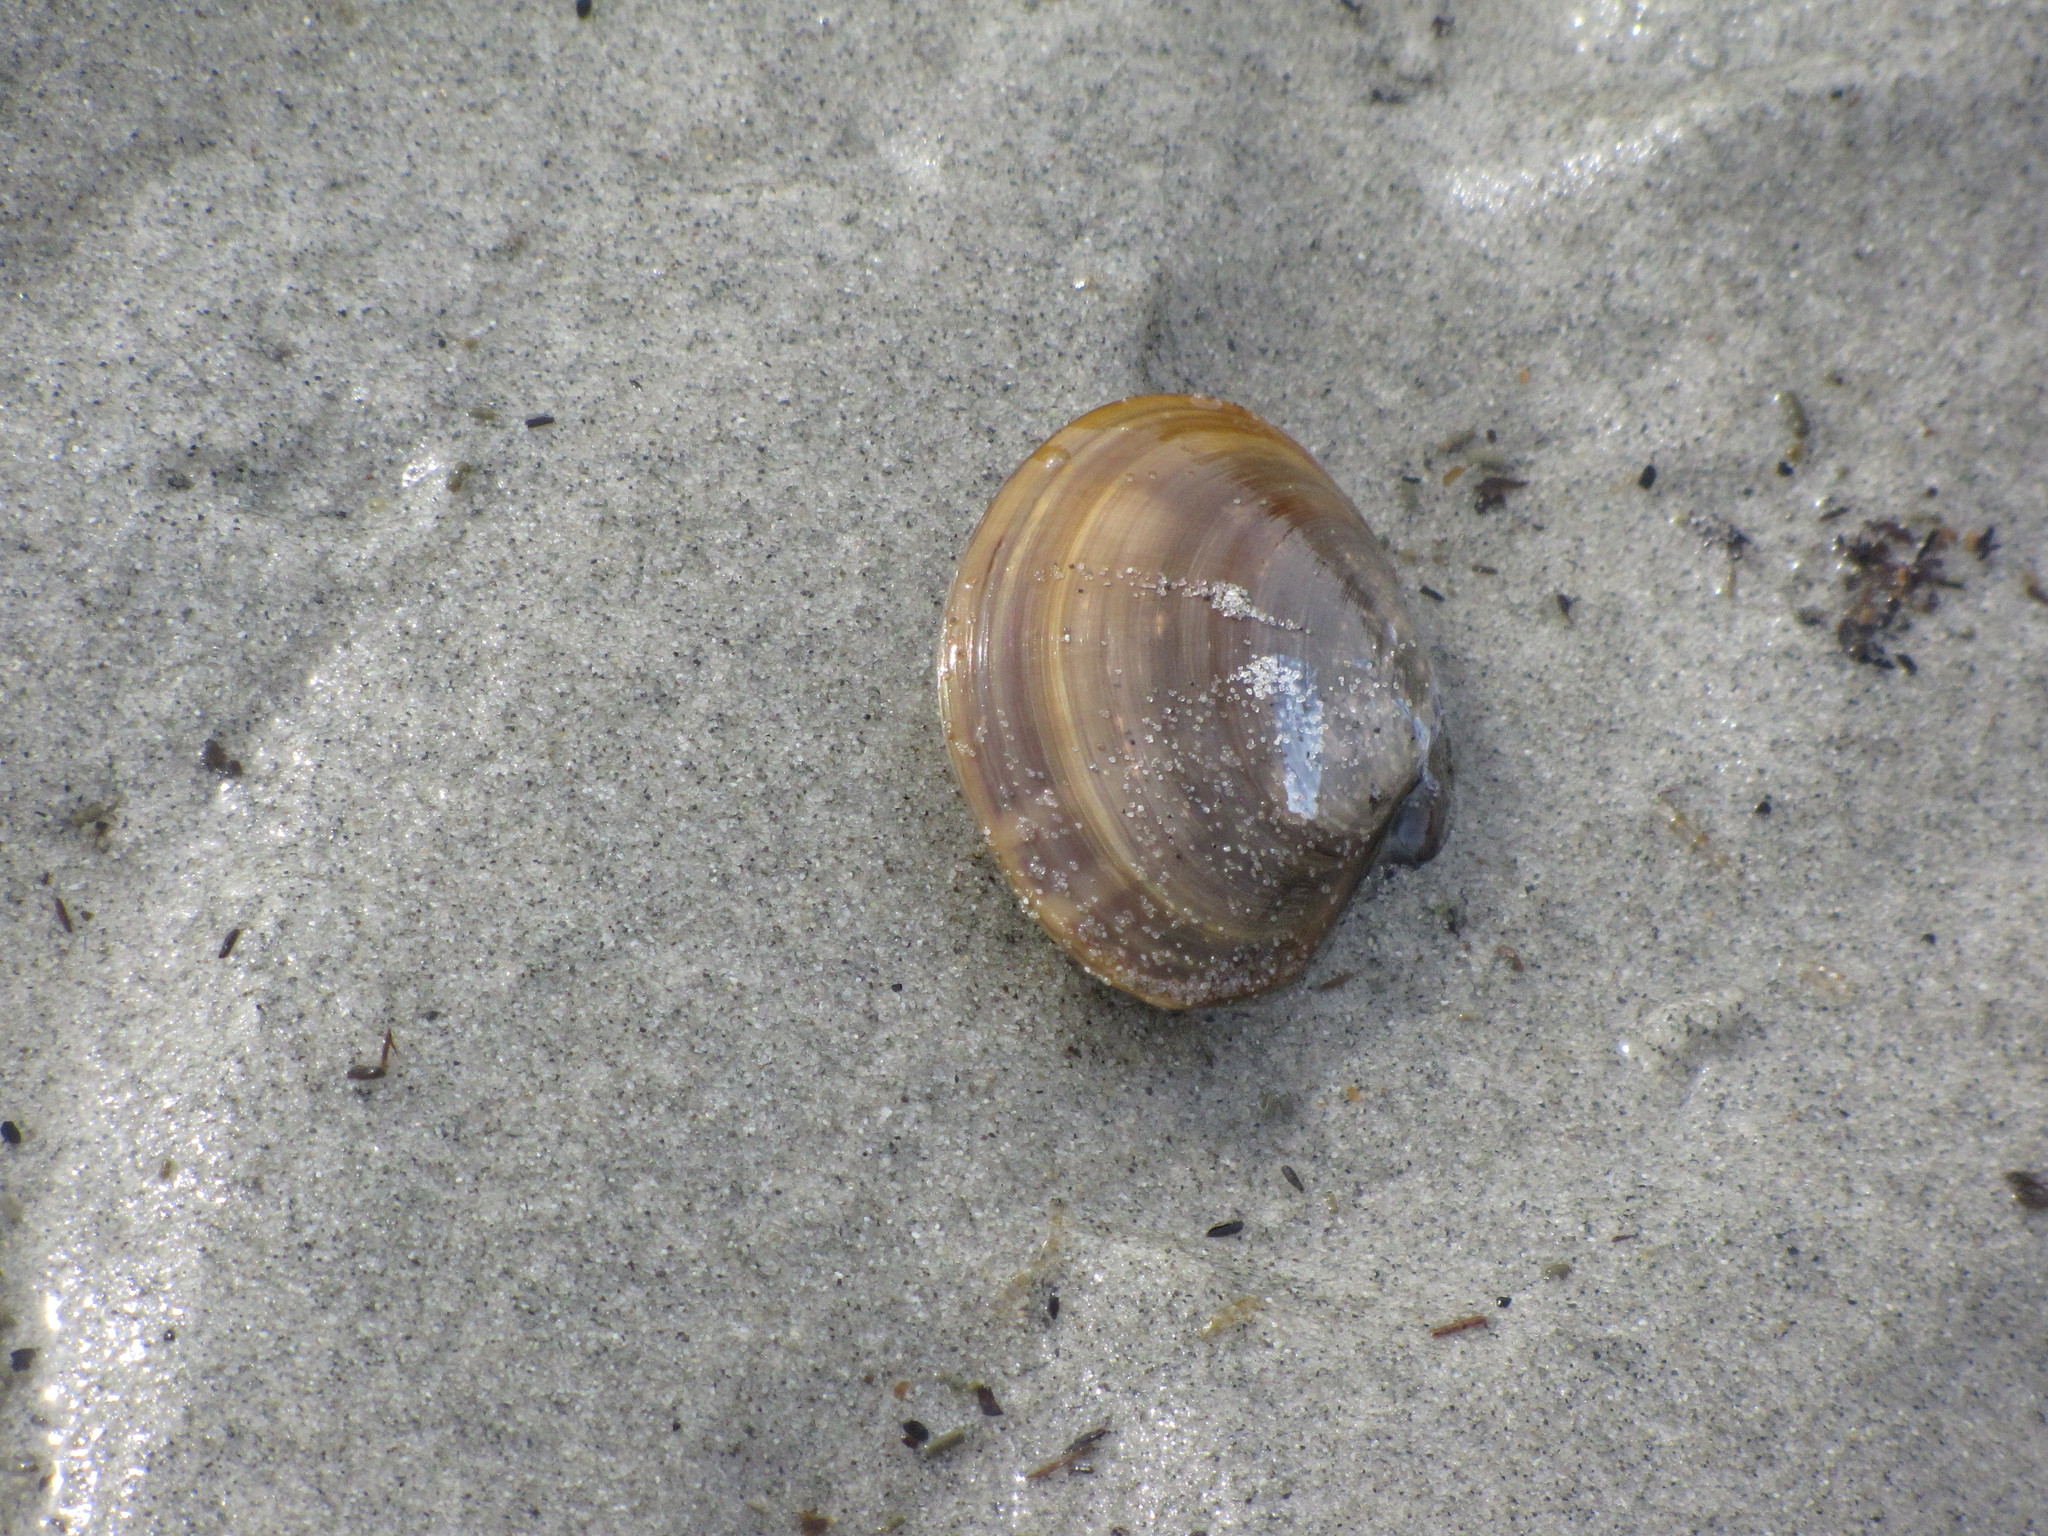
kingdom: Animalia
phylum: Mollusca
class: Bivalvia
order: Cardiida
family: Psammobiidae
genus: Nuttallia
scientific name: Nuttallia obscurata
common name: Purple mahogany-clam
